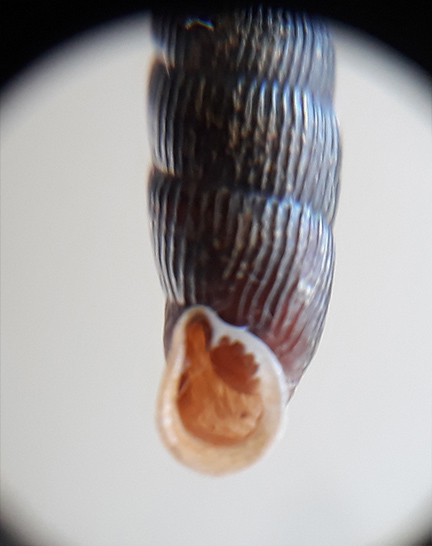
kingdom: Animalia
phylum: Mollusca
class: Gastropoda
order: Stylommatophora
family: Clausiliidae
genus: Macrogastra
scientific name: Macrogastra plicatula
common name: Plicate door snail
